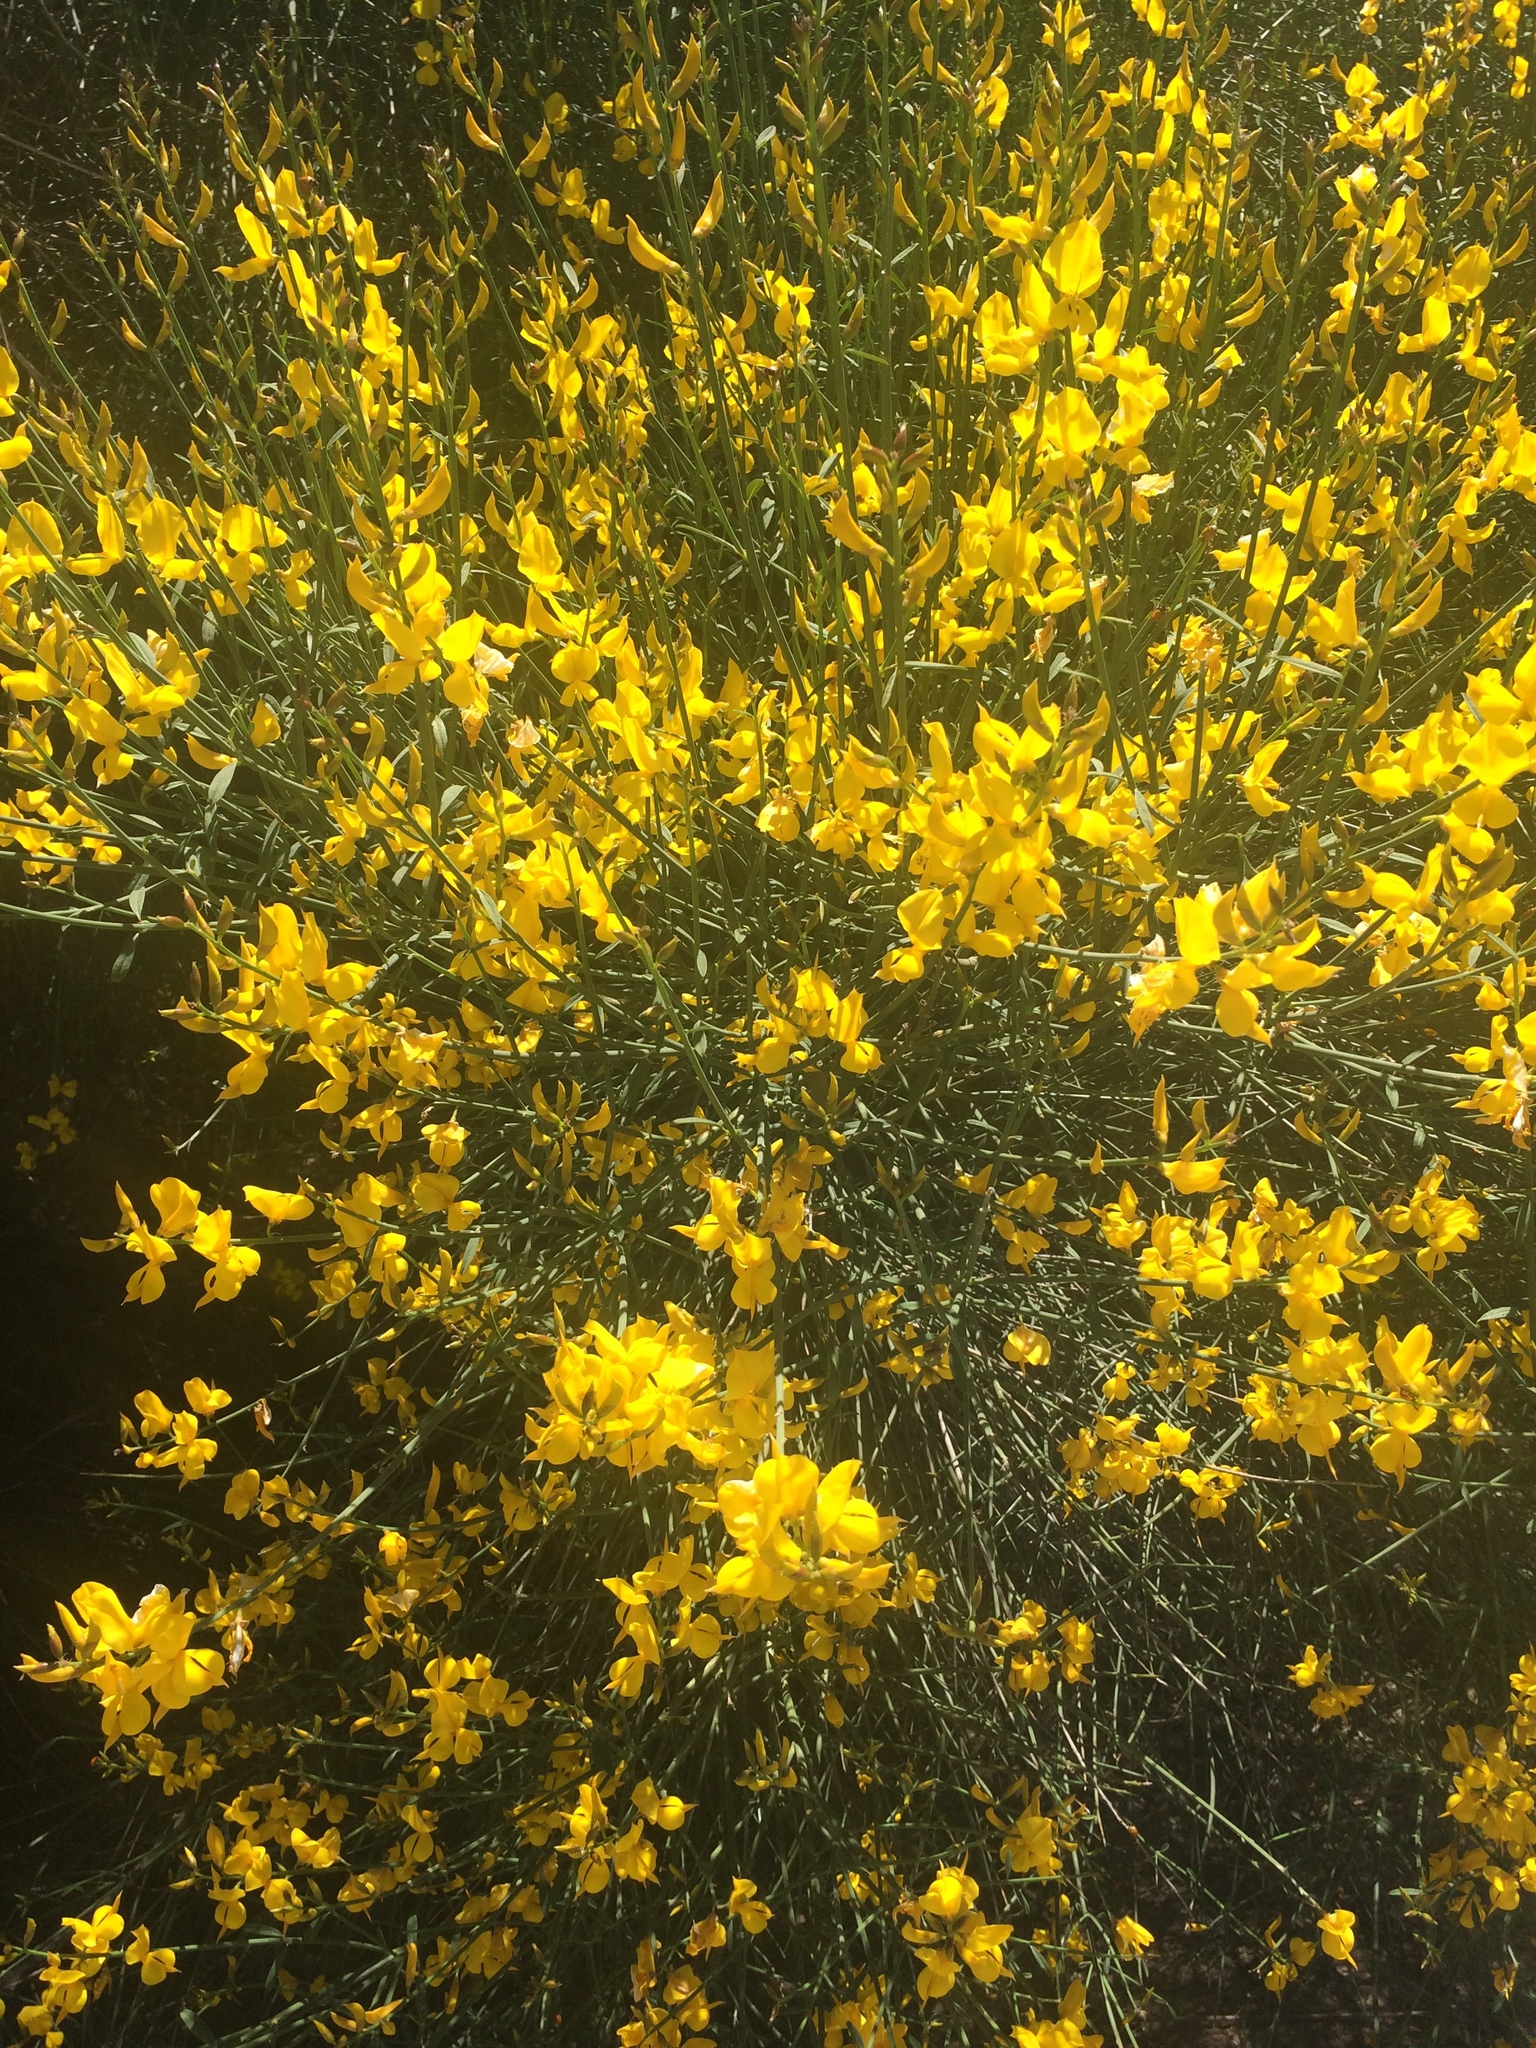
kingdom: Plantae
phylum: Tracheophyta
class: Magnoliopsida
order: Fabales
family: Fabaceae
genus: Spartium
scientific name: Spartium junceum
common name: Spanish broom
